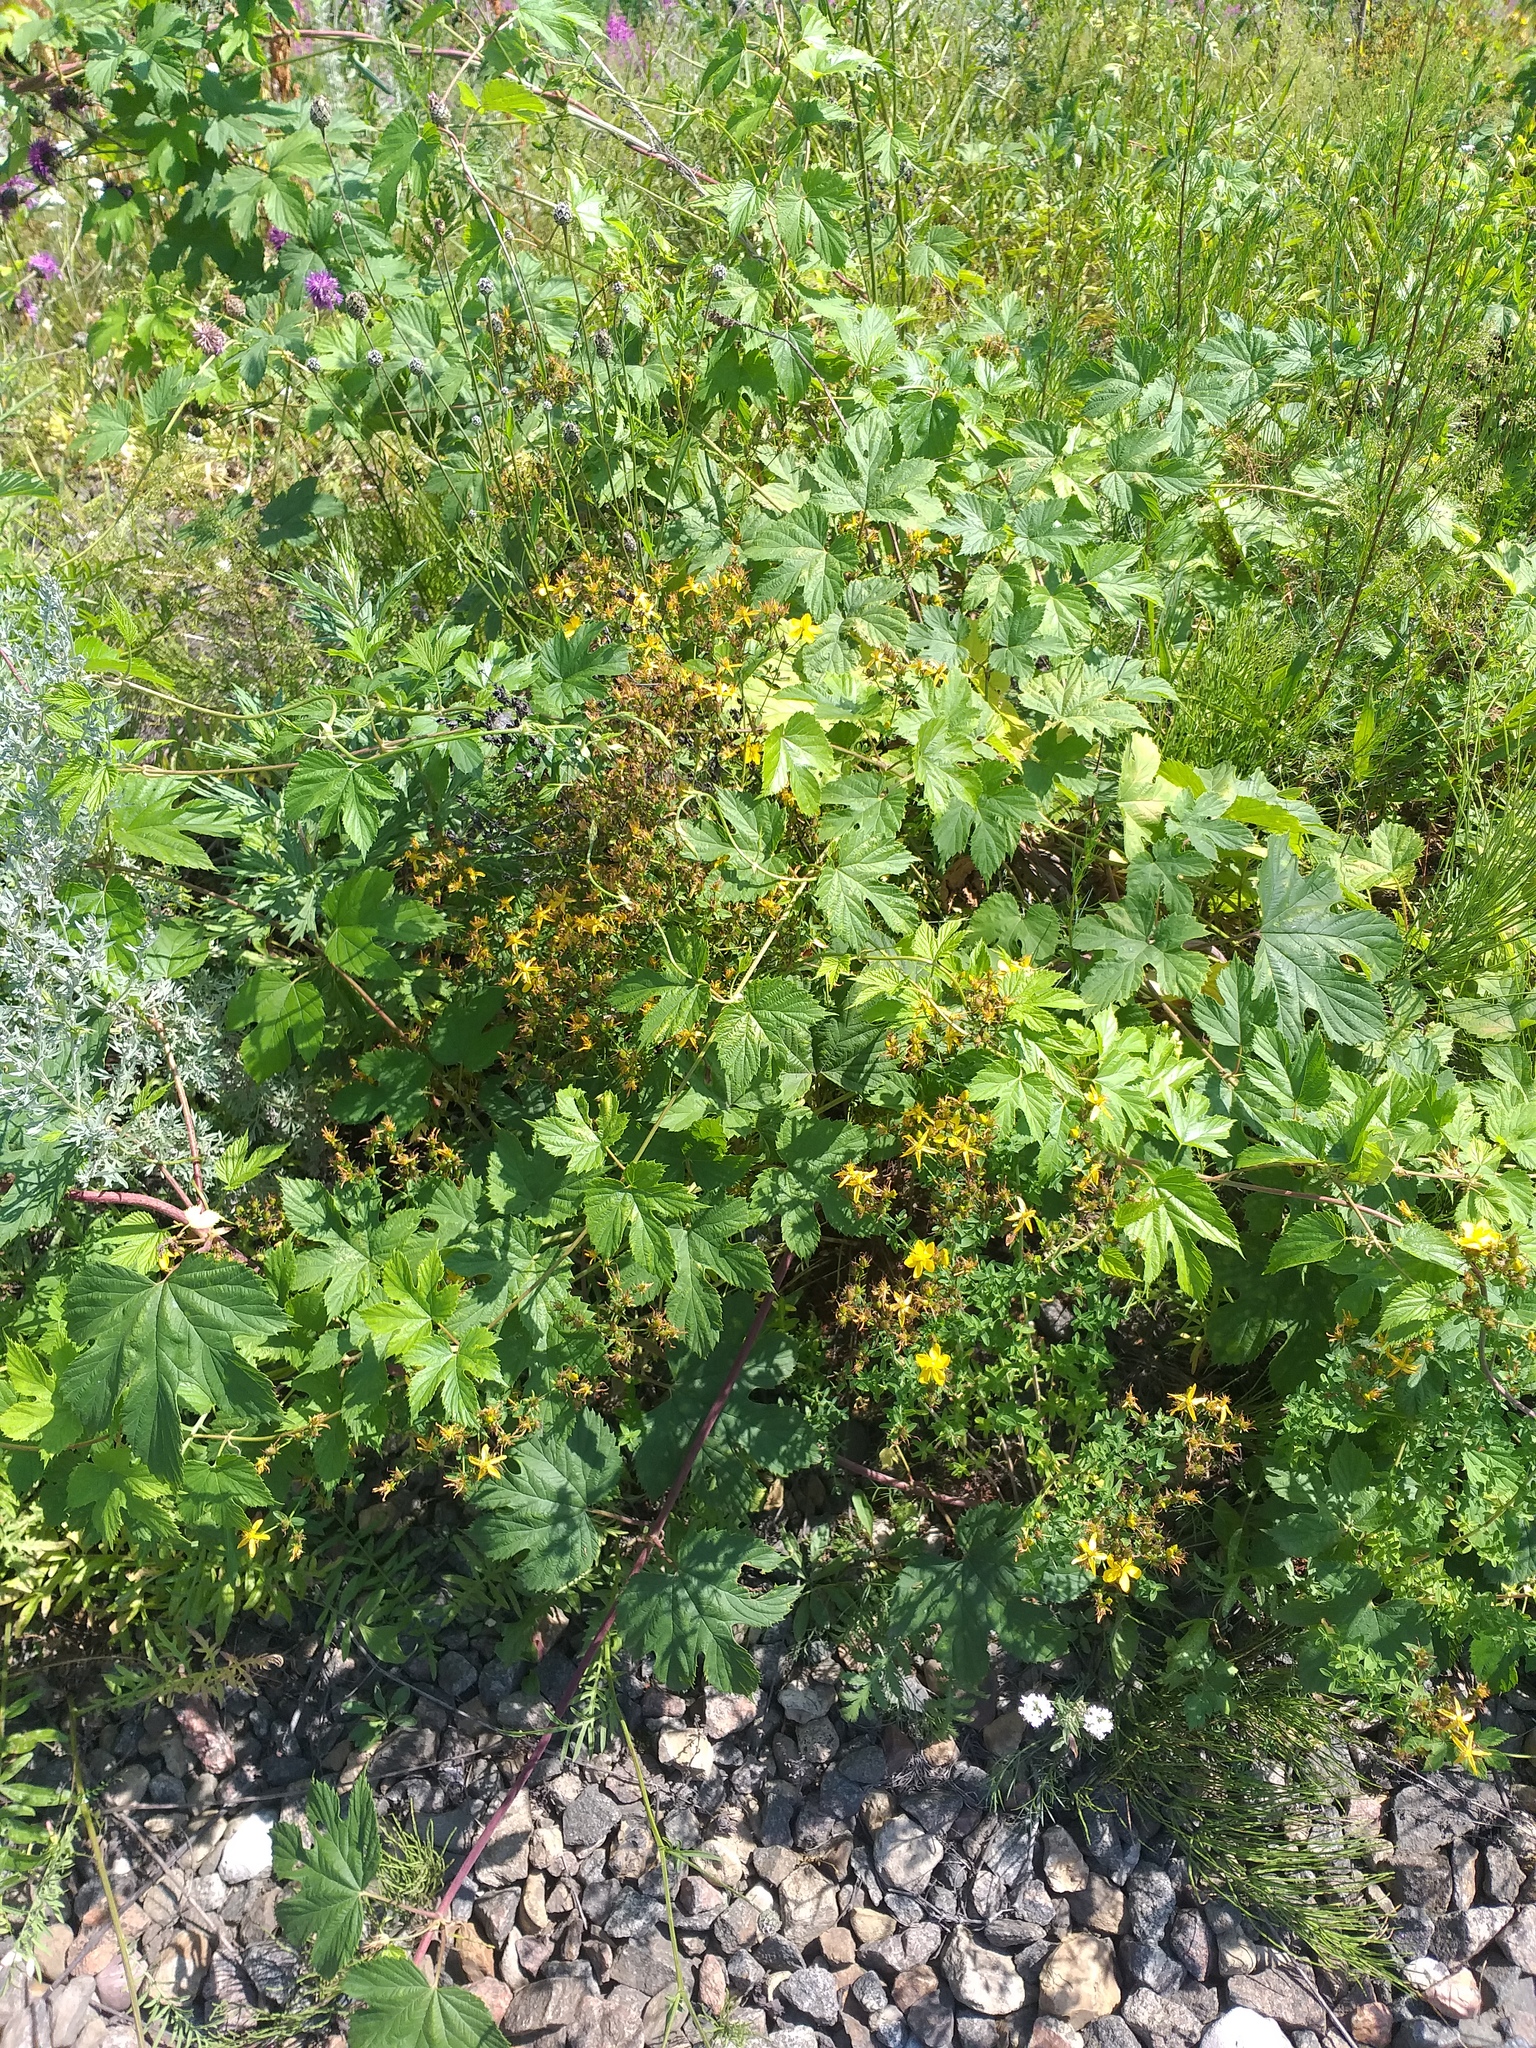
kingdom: Plantae
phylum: Tracheophyta
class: Magnoliopsida
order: Rosales
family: Cannabaceae
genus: Humulus
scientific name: Humulus lupulus
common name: Hop
